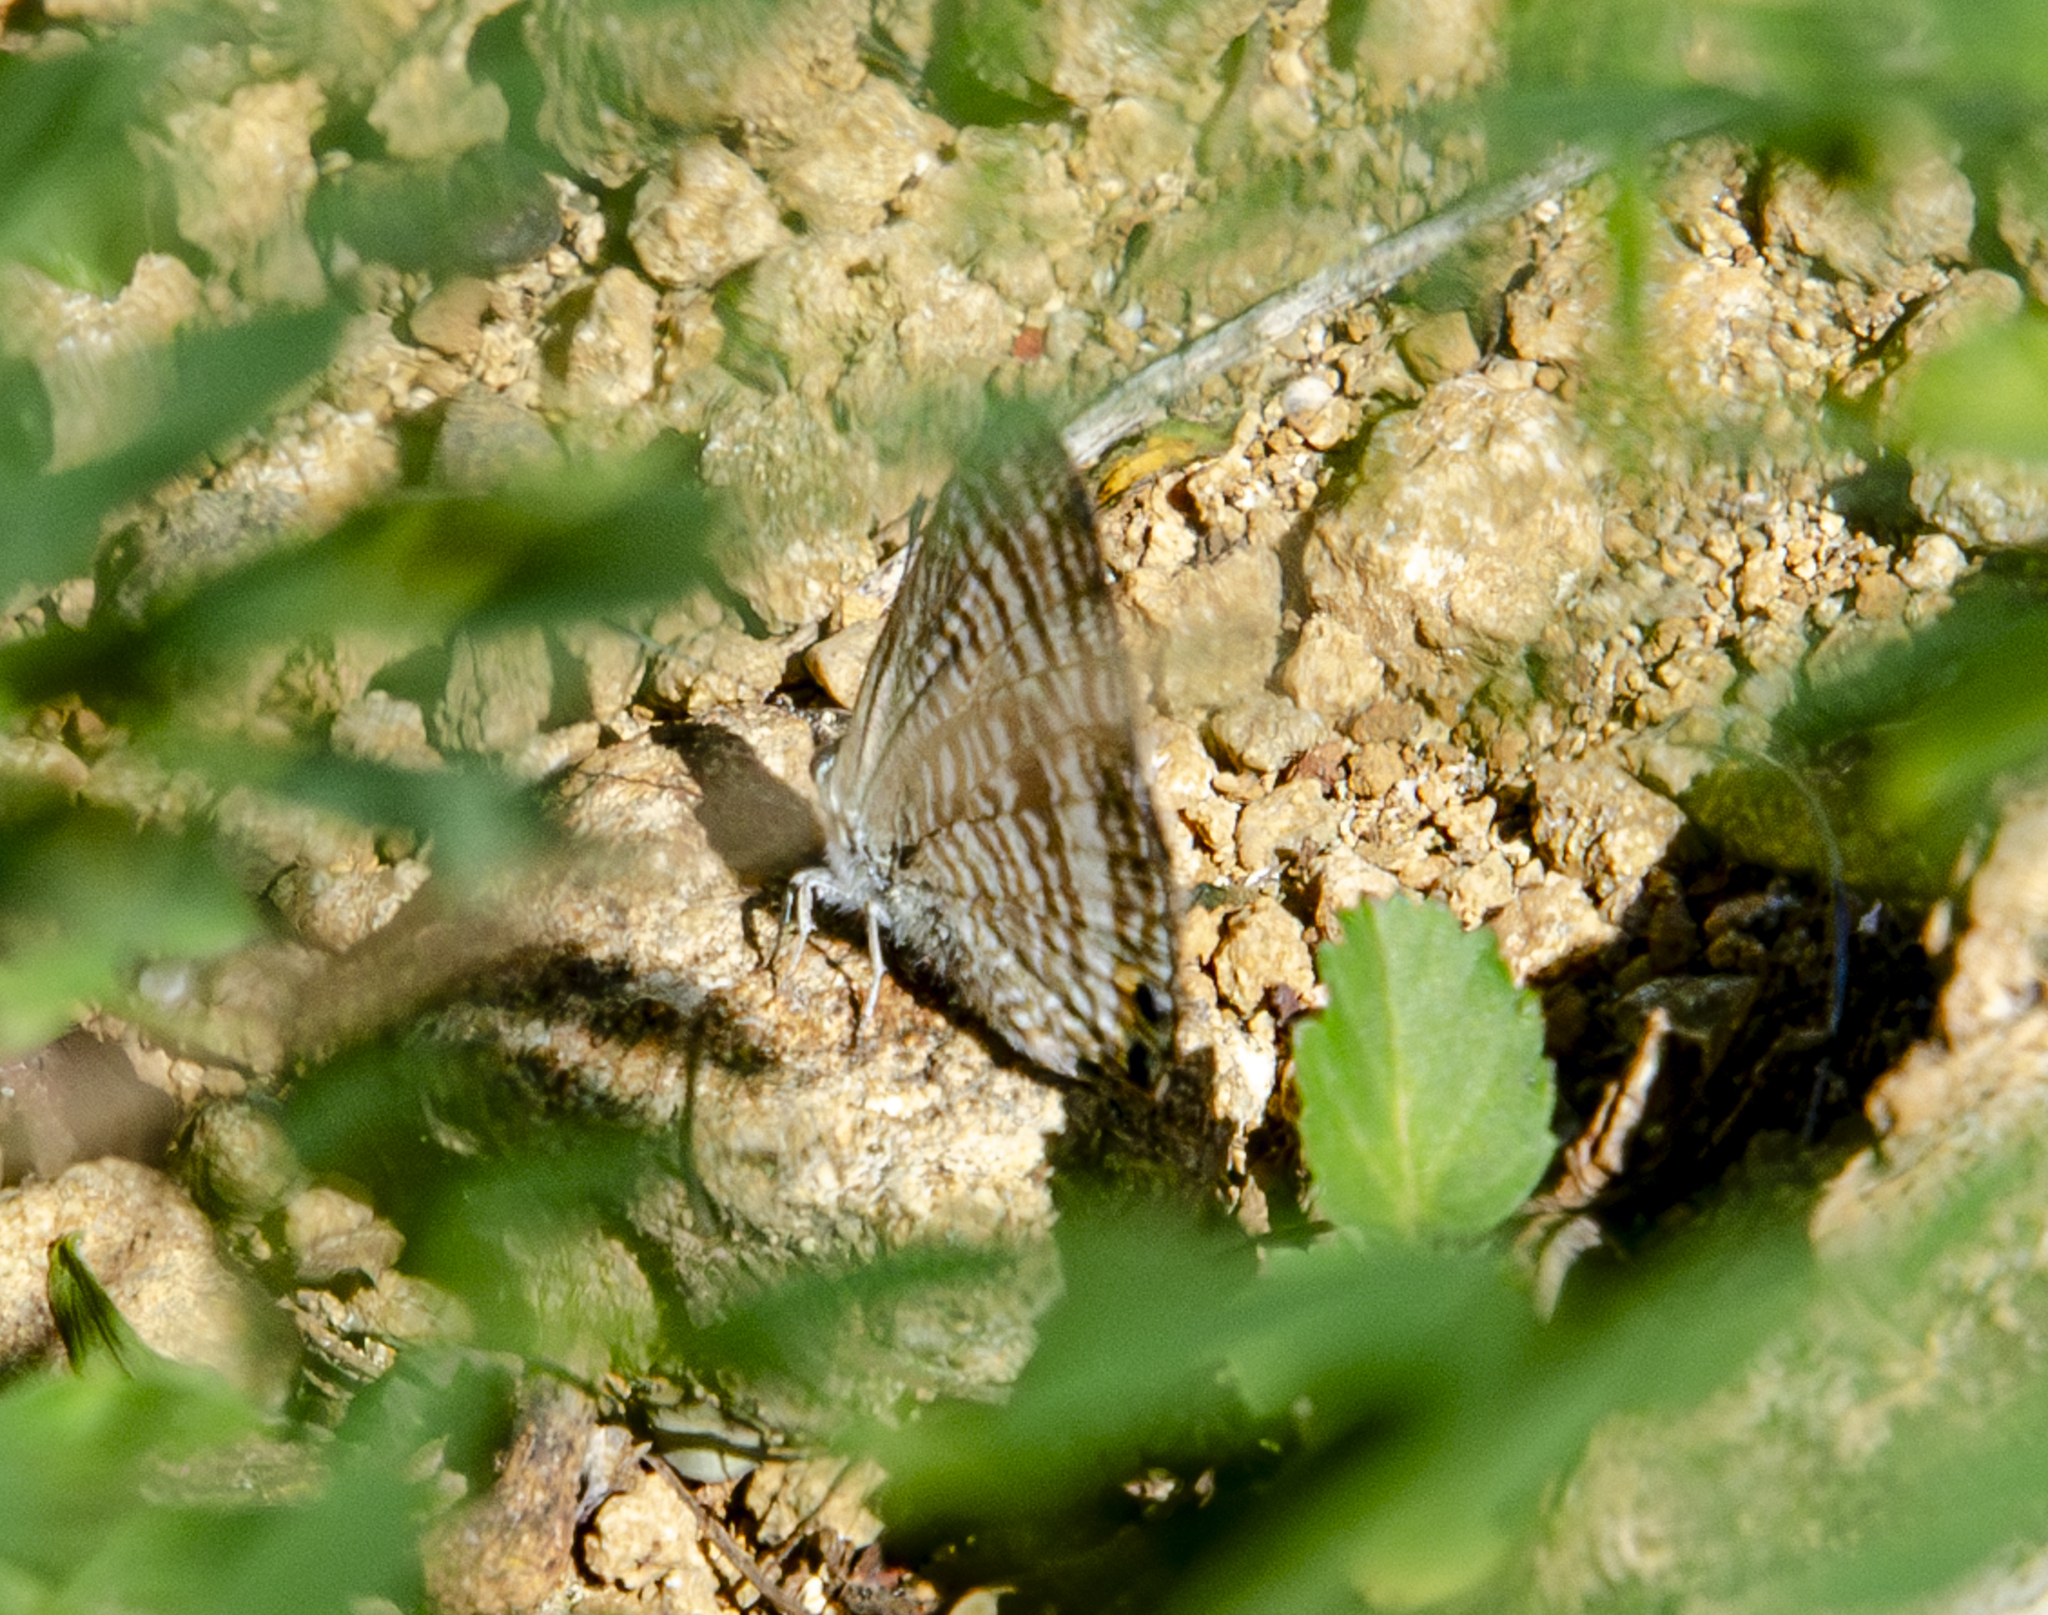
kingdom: Animalia
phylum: Arthropoda
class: Insecta
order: Lepidoptera
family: Lycaenidae
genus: Lampides
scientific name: Lampides boeticus
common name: Long-tailed blue
